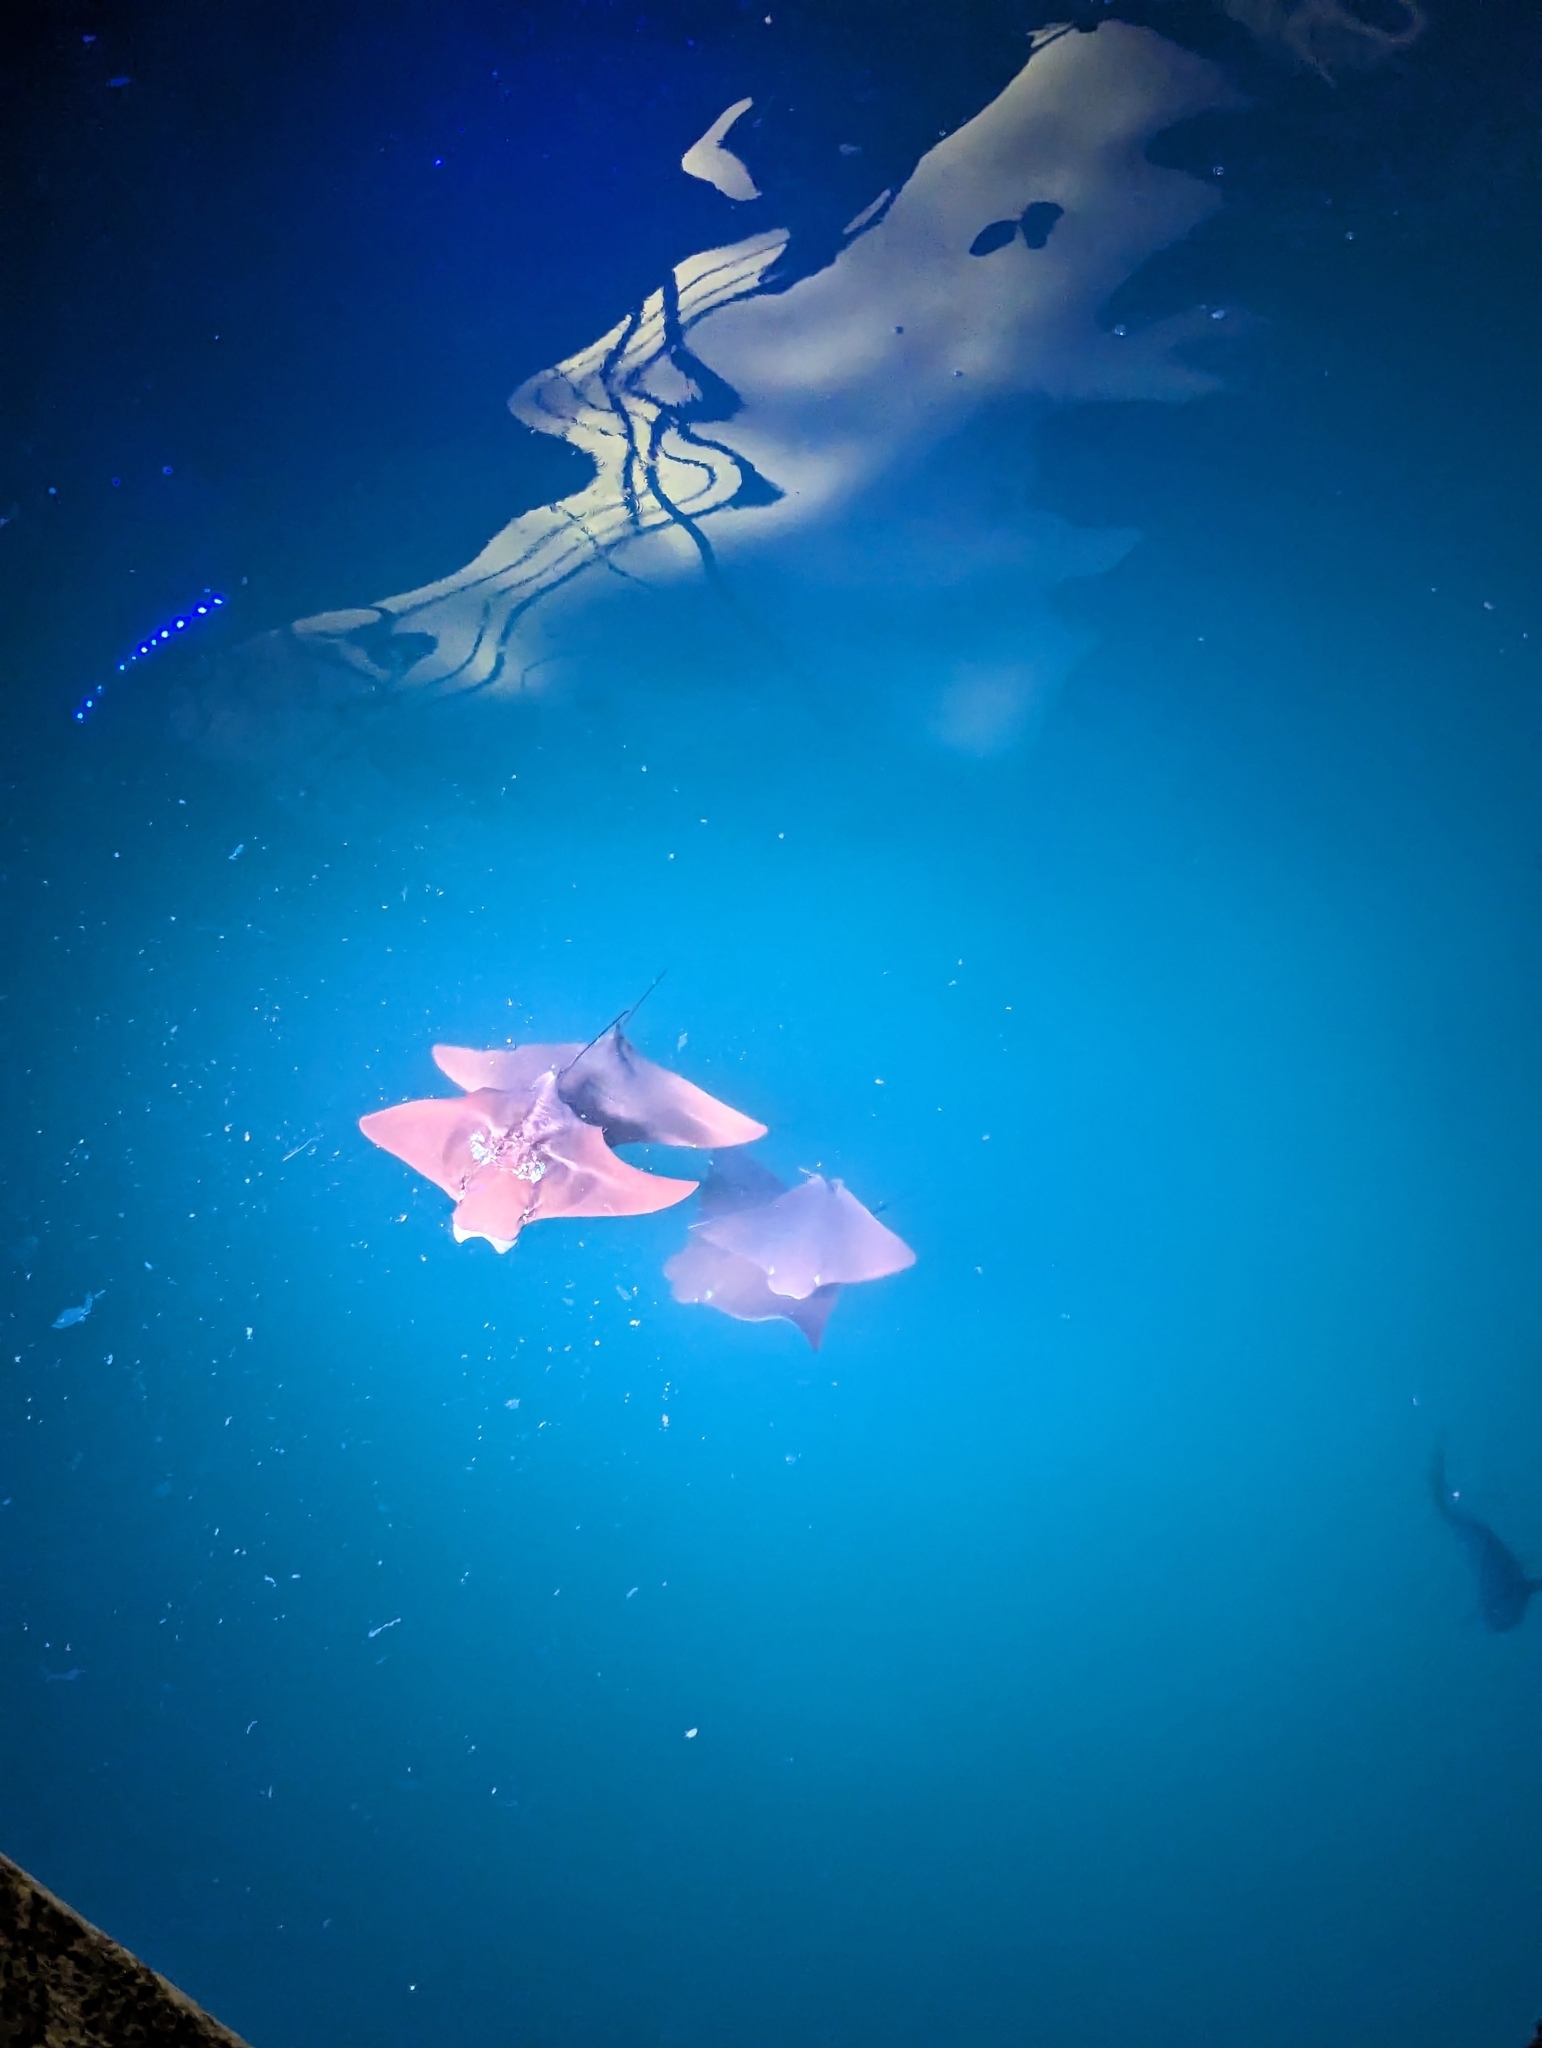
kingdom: Animalia
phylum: Chordata
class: Elasmobranchii
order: Myliobatiformes
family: Myliobatidae
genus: Rhinoptera
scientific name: Rhinoptera steindachneri
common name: Golden cownose ray
